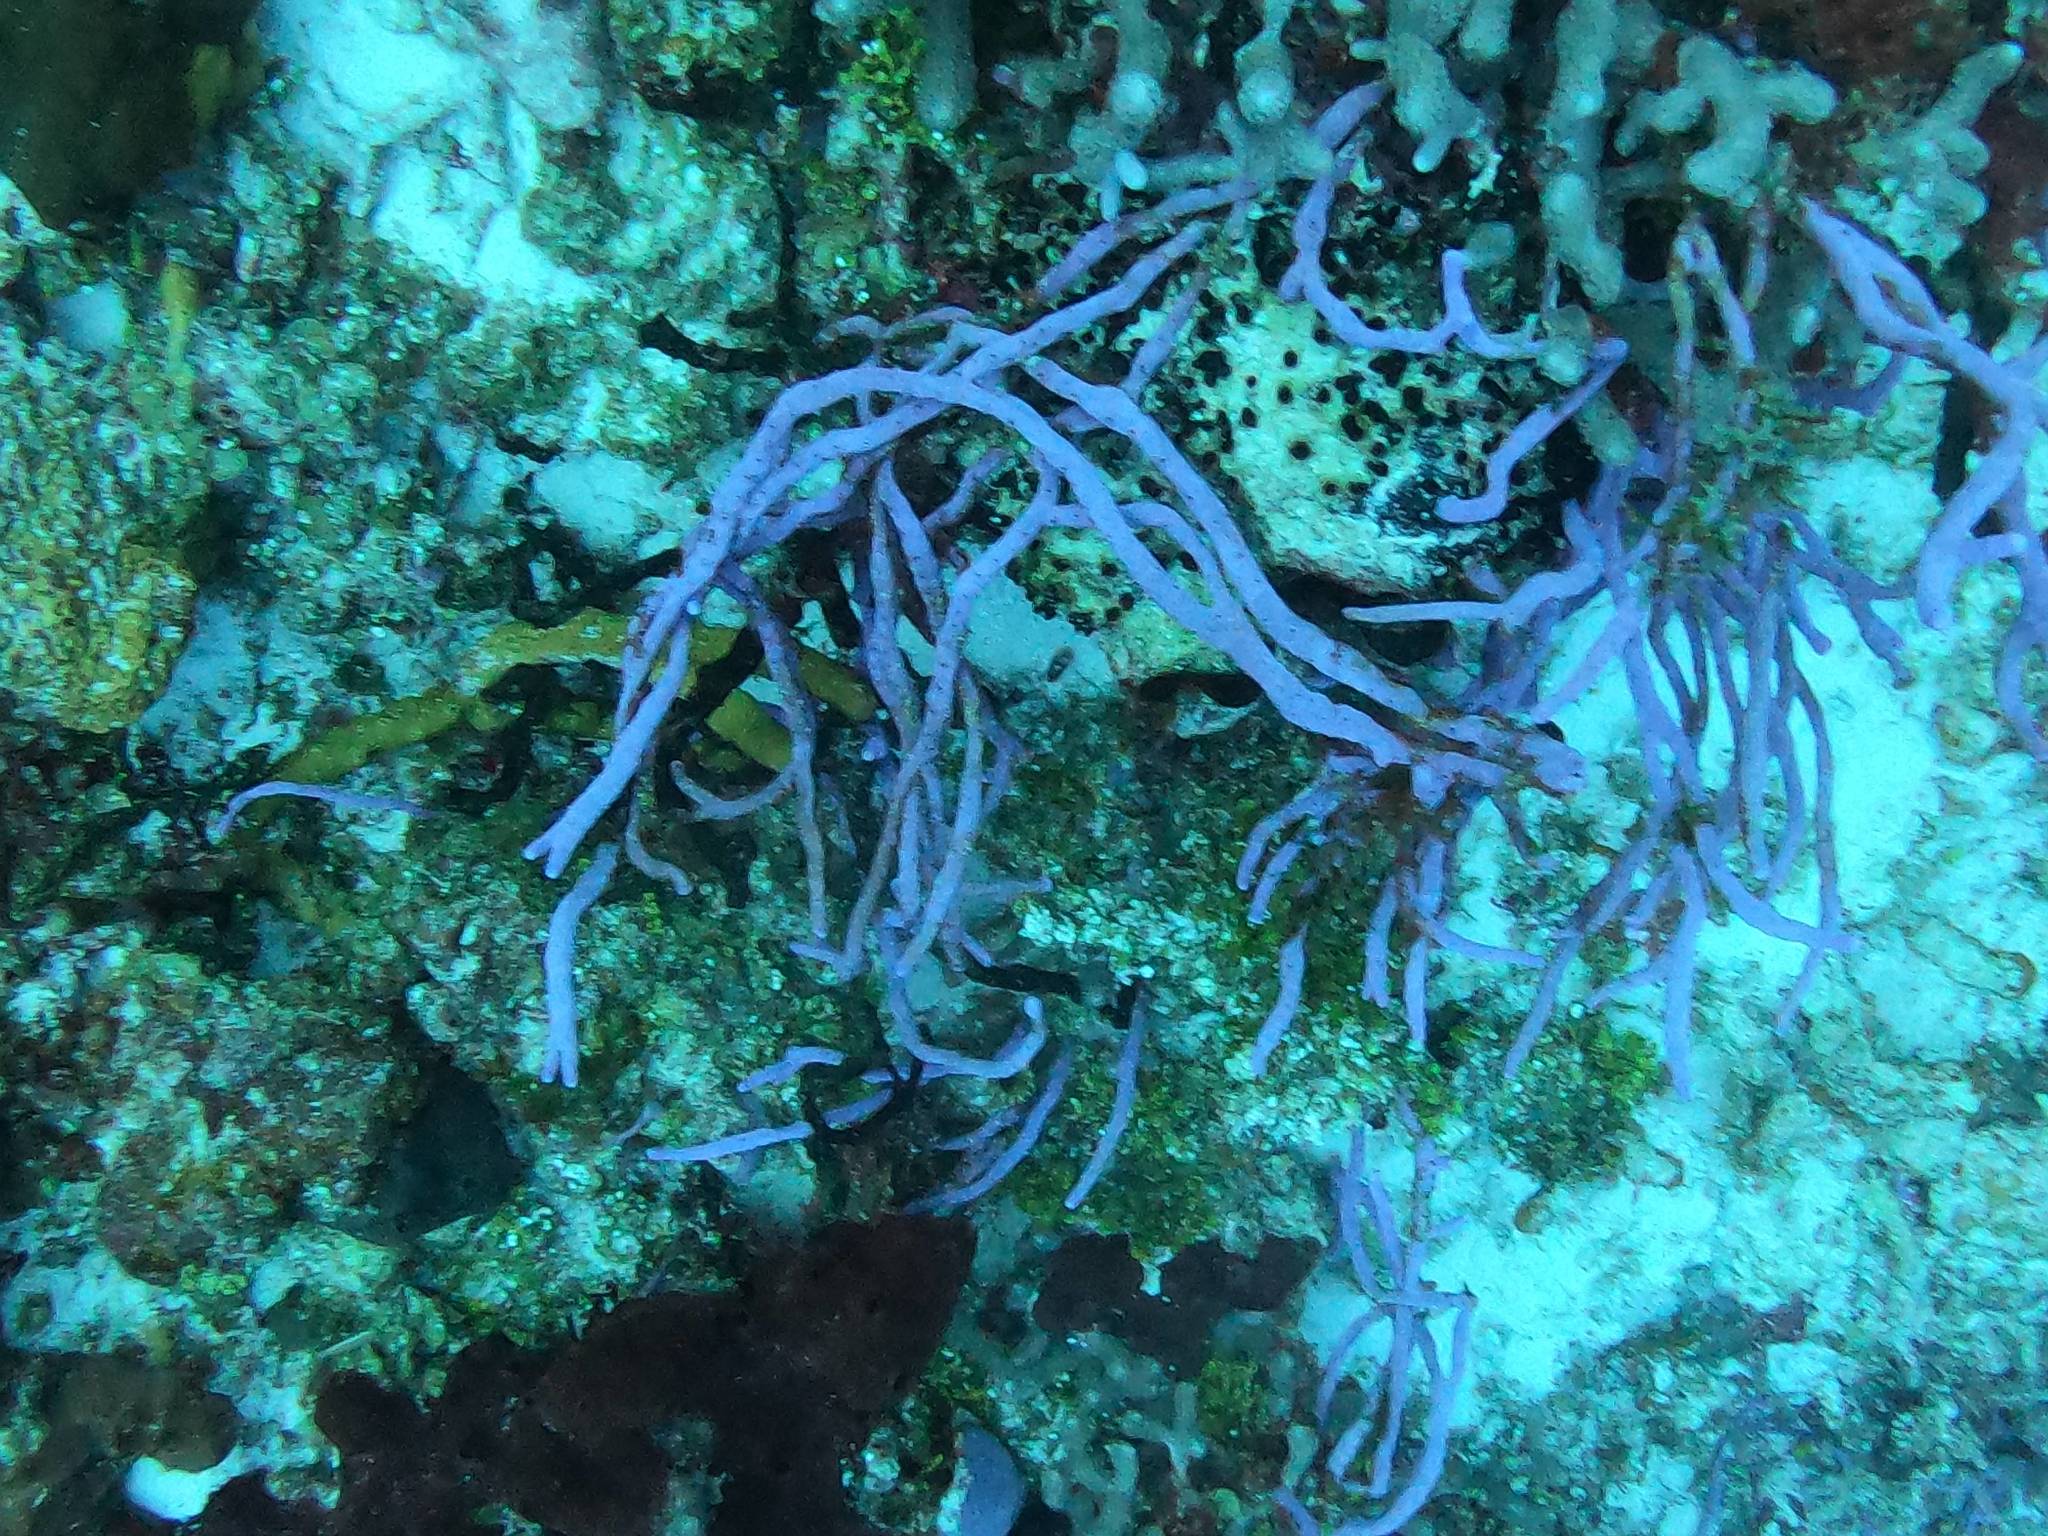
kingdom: Animalia
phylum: Porifera
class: Demospongiae
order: Verongiida
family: Aplysinidae
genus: Aplysina
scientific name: Aplysina cauliformis
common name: Branching candle sponge
